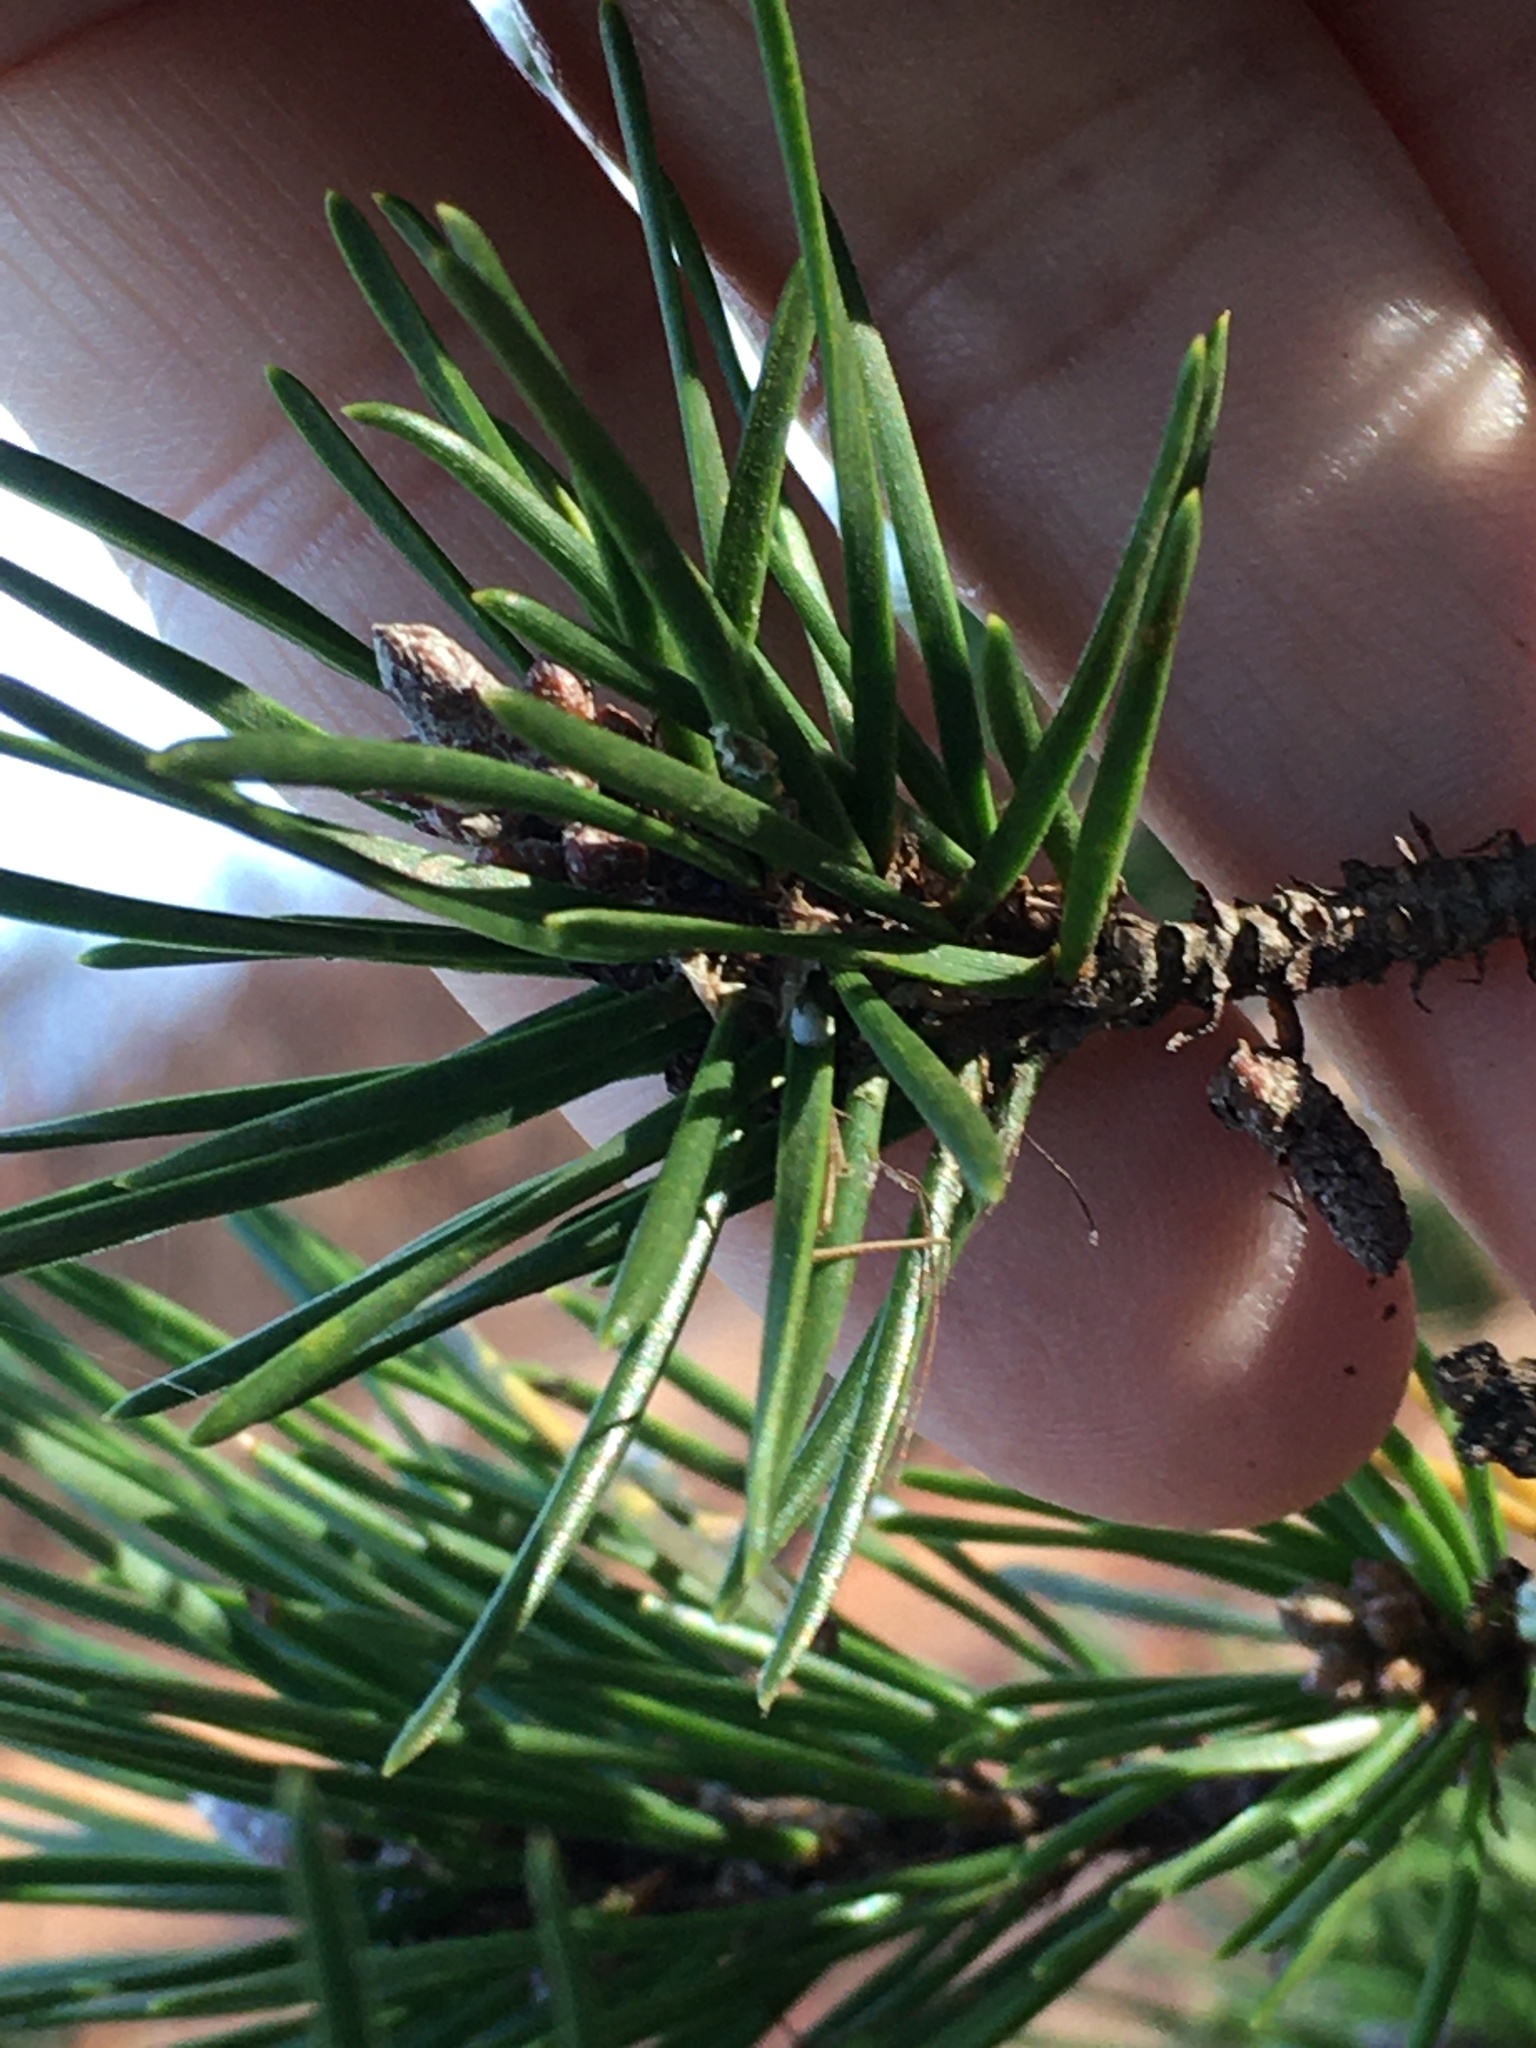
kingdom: Plantae
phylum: Tracheophyta
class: Pinopsida
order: Pinales
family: Pinaceae
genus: Pinus
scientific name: Pinus virginiana
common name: Scrub pine
